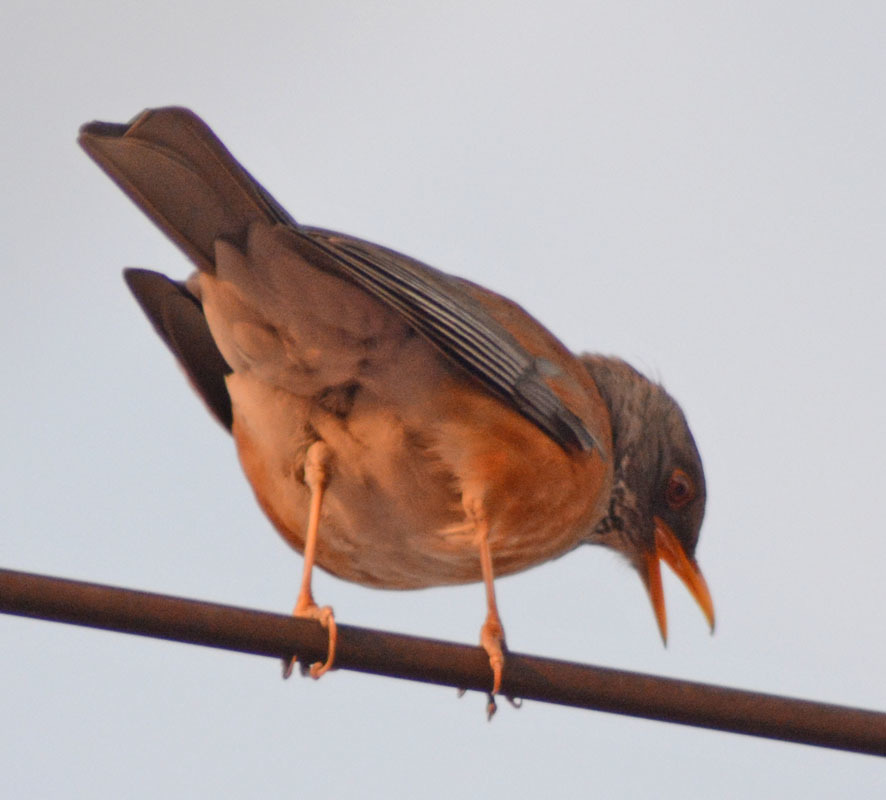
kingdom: Animalia
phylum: Chordata
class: Aves
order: Passeriformes
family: Turdidae
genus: Turdus
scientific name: Turdus rufopalliatus
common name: Rufous-backed robin
